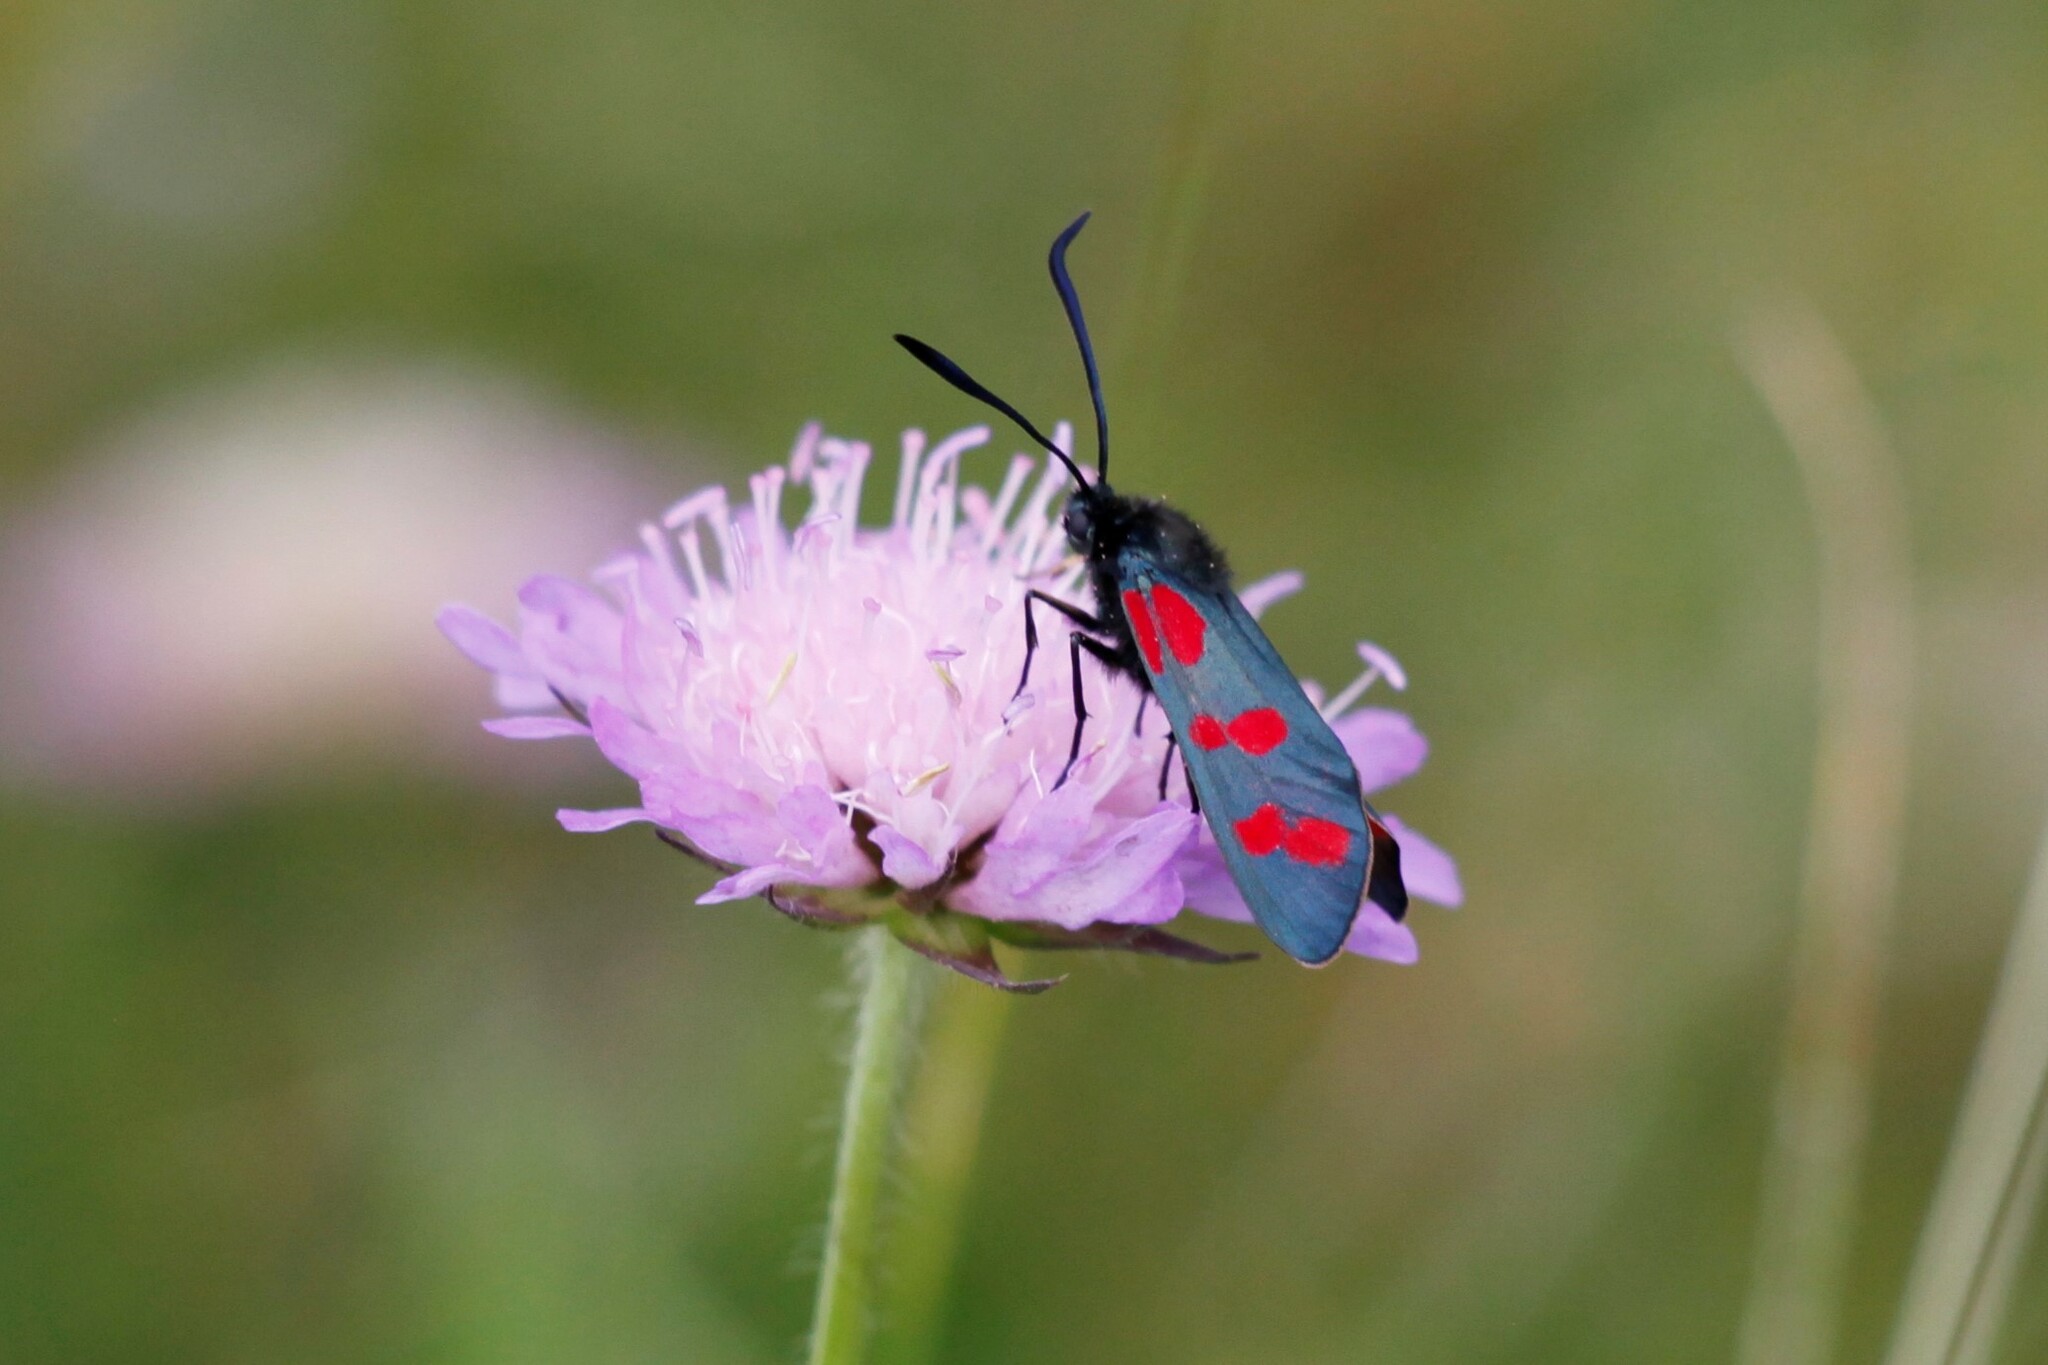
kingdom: Animalia
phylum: Arthropoda
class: Insecta
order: Lepidoptera
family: Zygaenidae
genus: Zygaena
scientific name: Zygaena filipendulae
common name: Six-spot burnet
